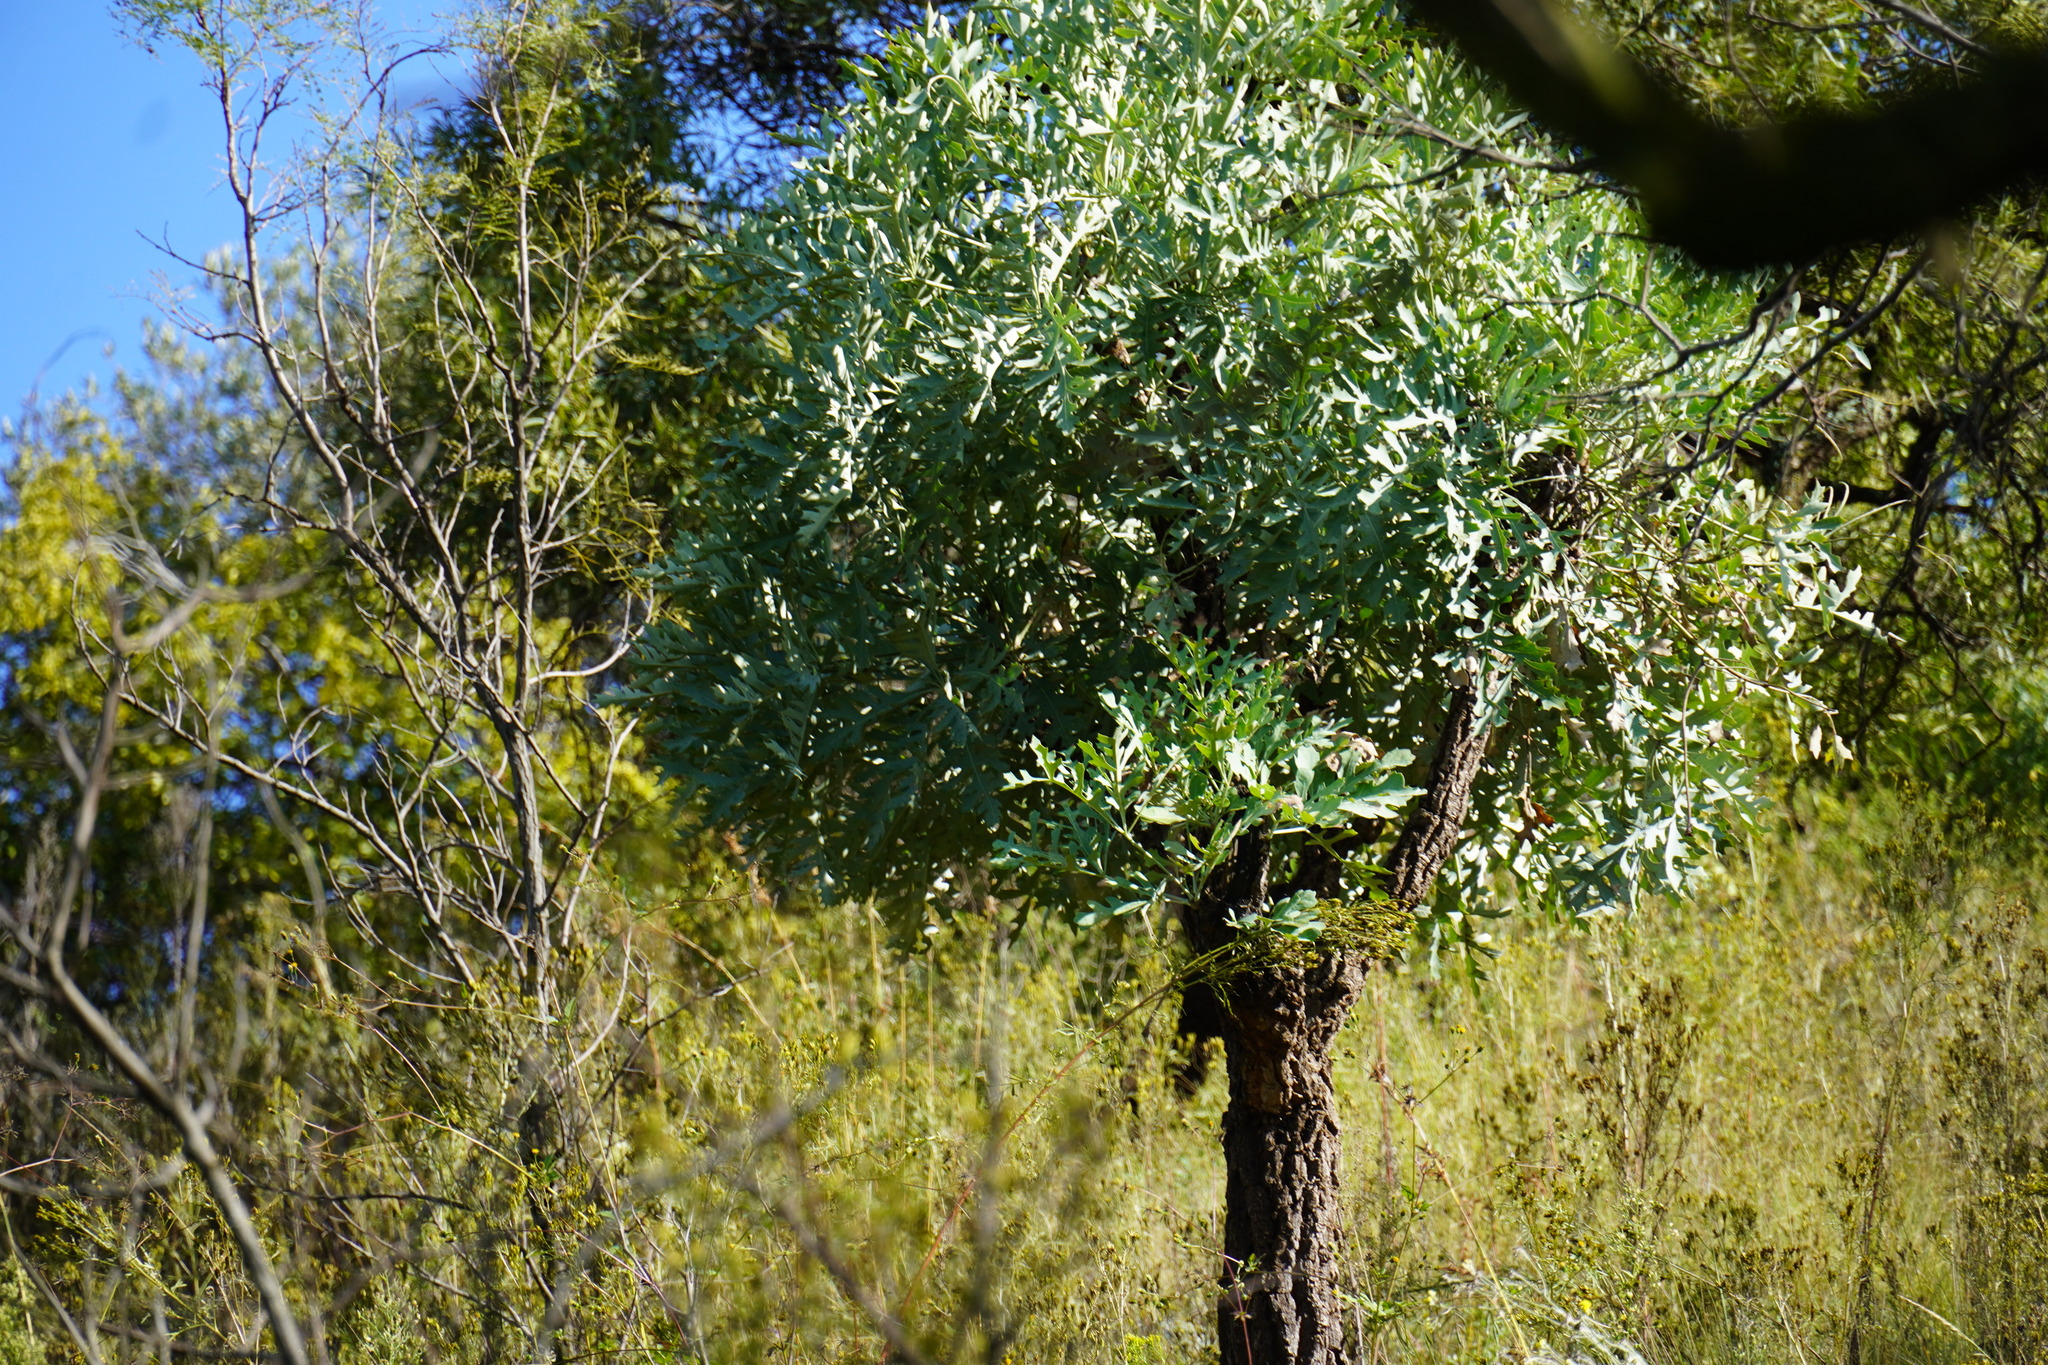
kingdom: Plantae
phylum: Tracheophyta
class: Magnoliopsida
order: Apiales
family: Araliaceae
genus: Cussonia
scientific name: Cussonia paniculata
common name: Cabbagetree
